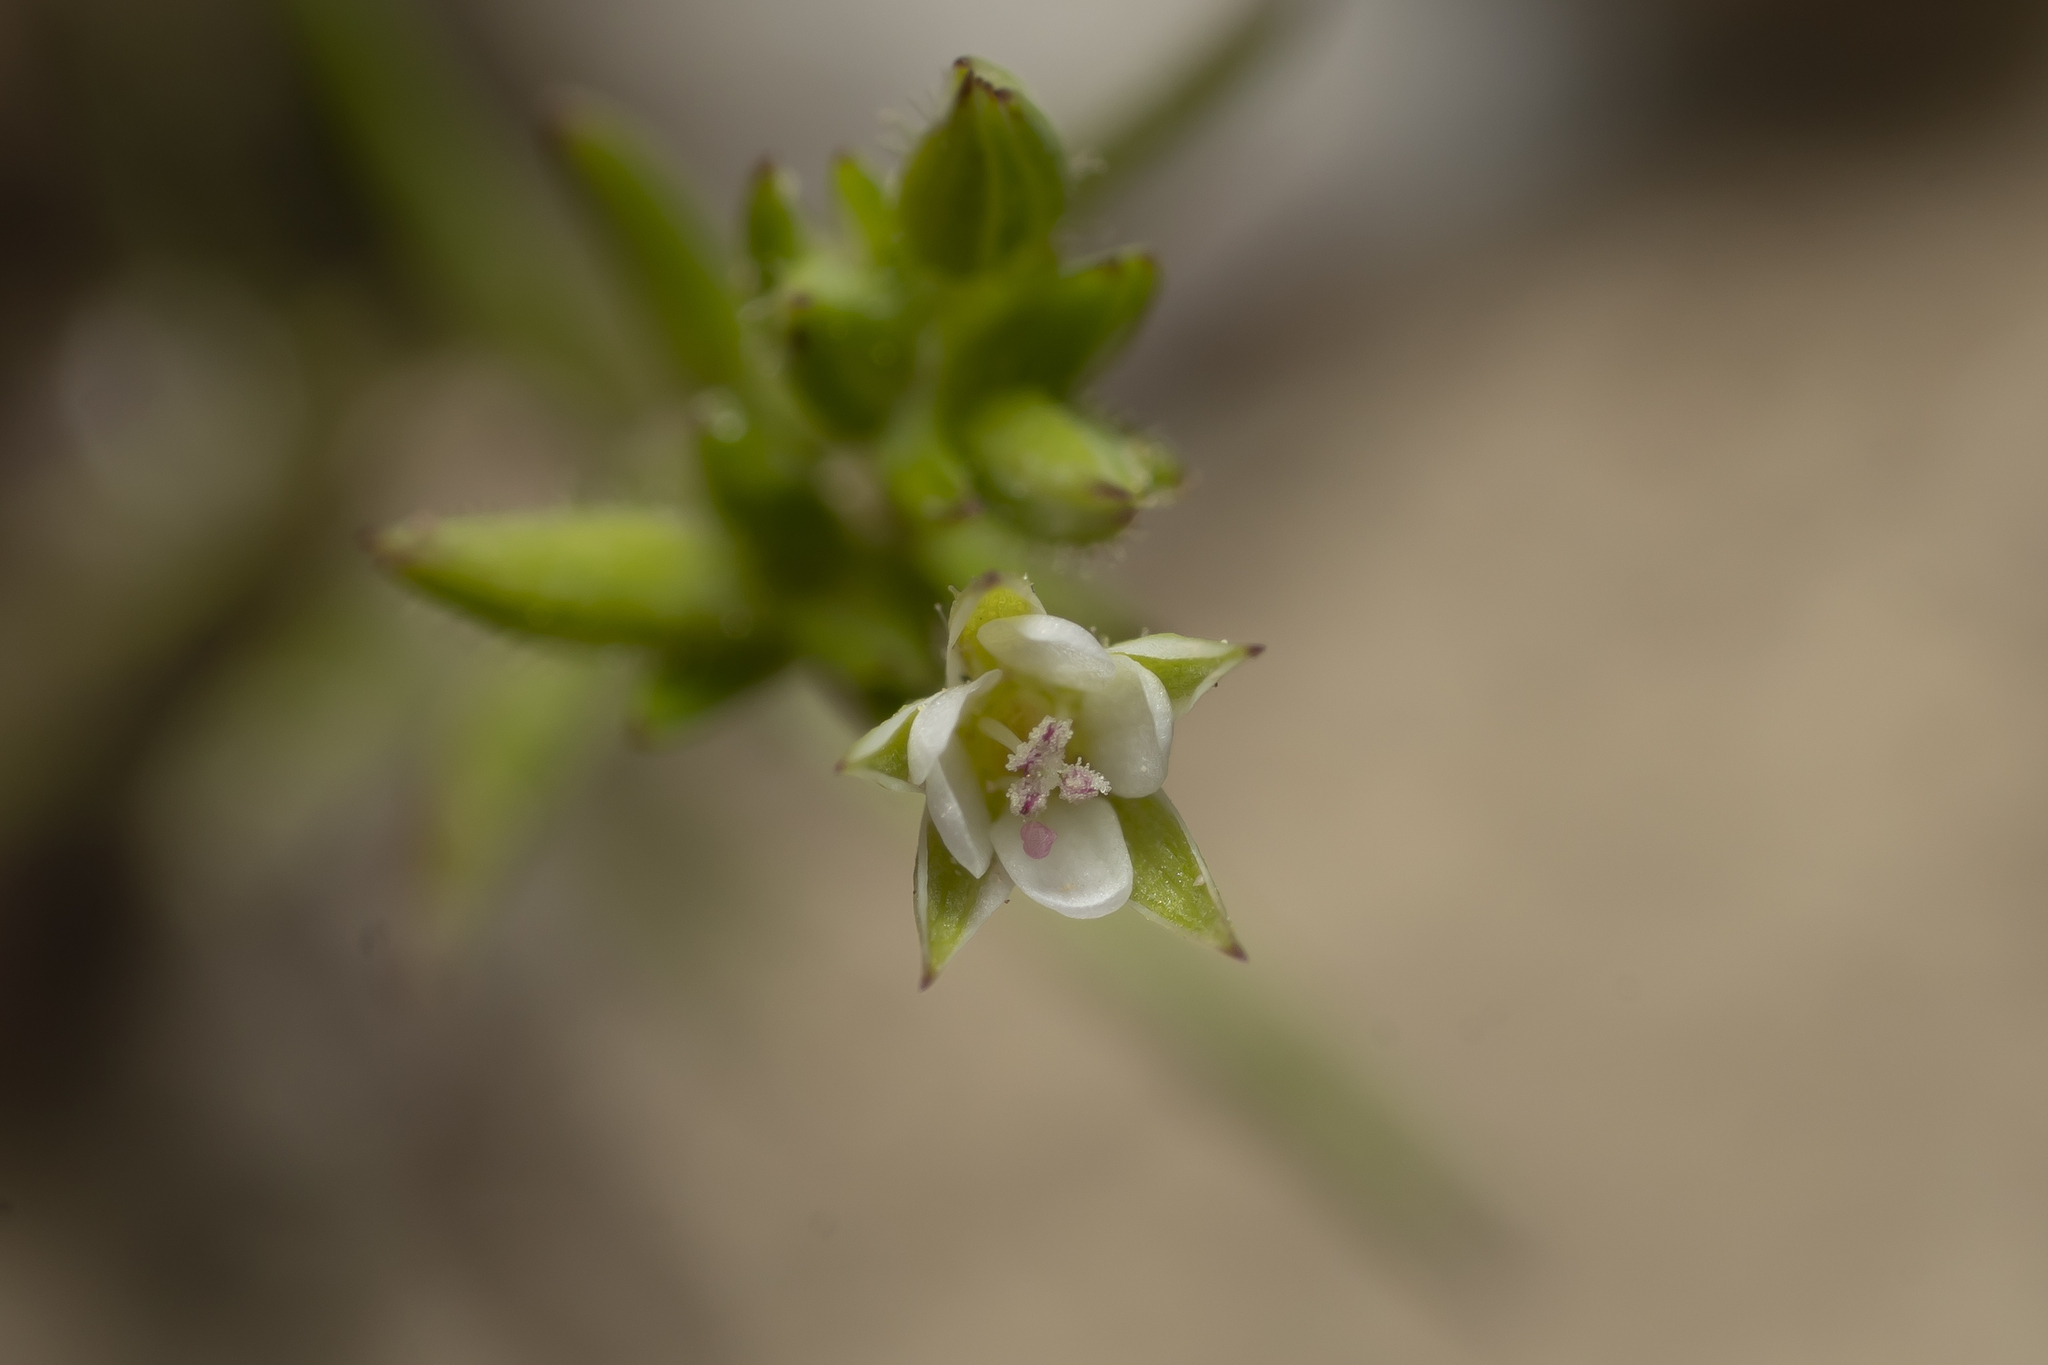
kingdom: Plantae
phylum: Tracheophyta
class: Magnoliopsida
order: Caryophyllales
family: Caryophyllaceae
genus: Sabulina
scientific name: Sabulina tenuifolia
